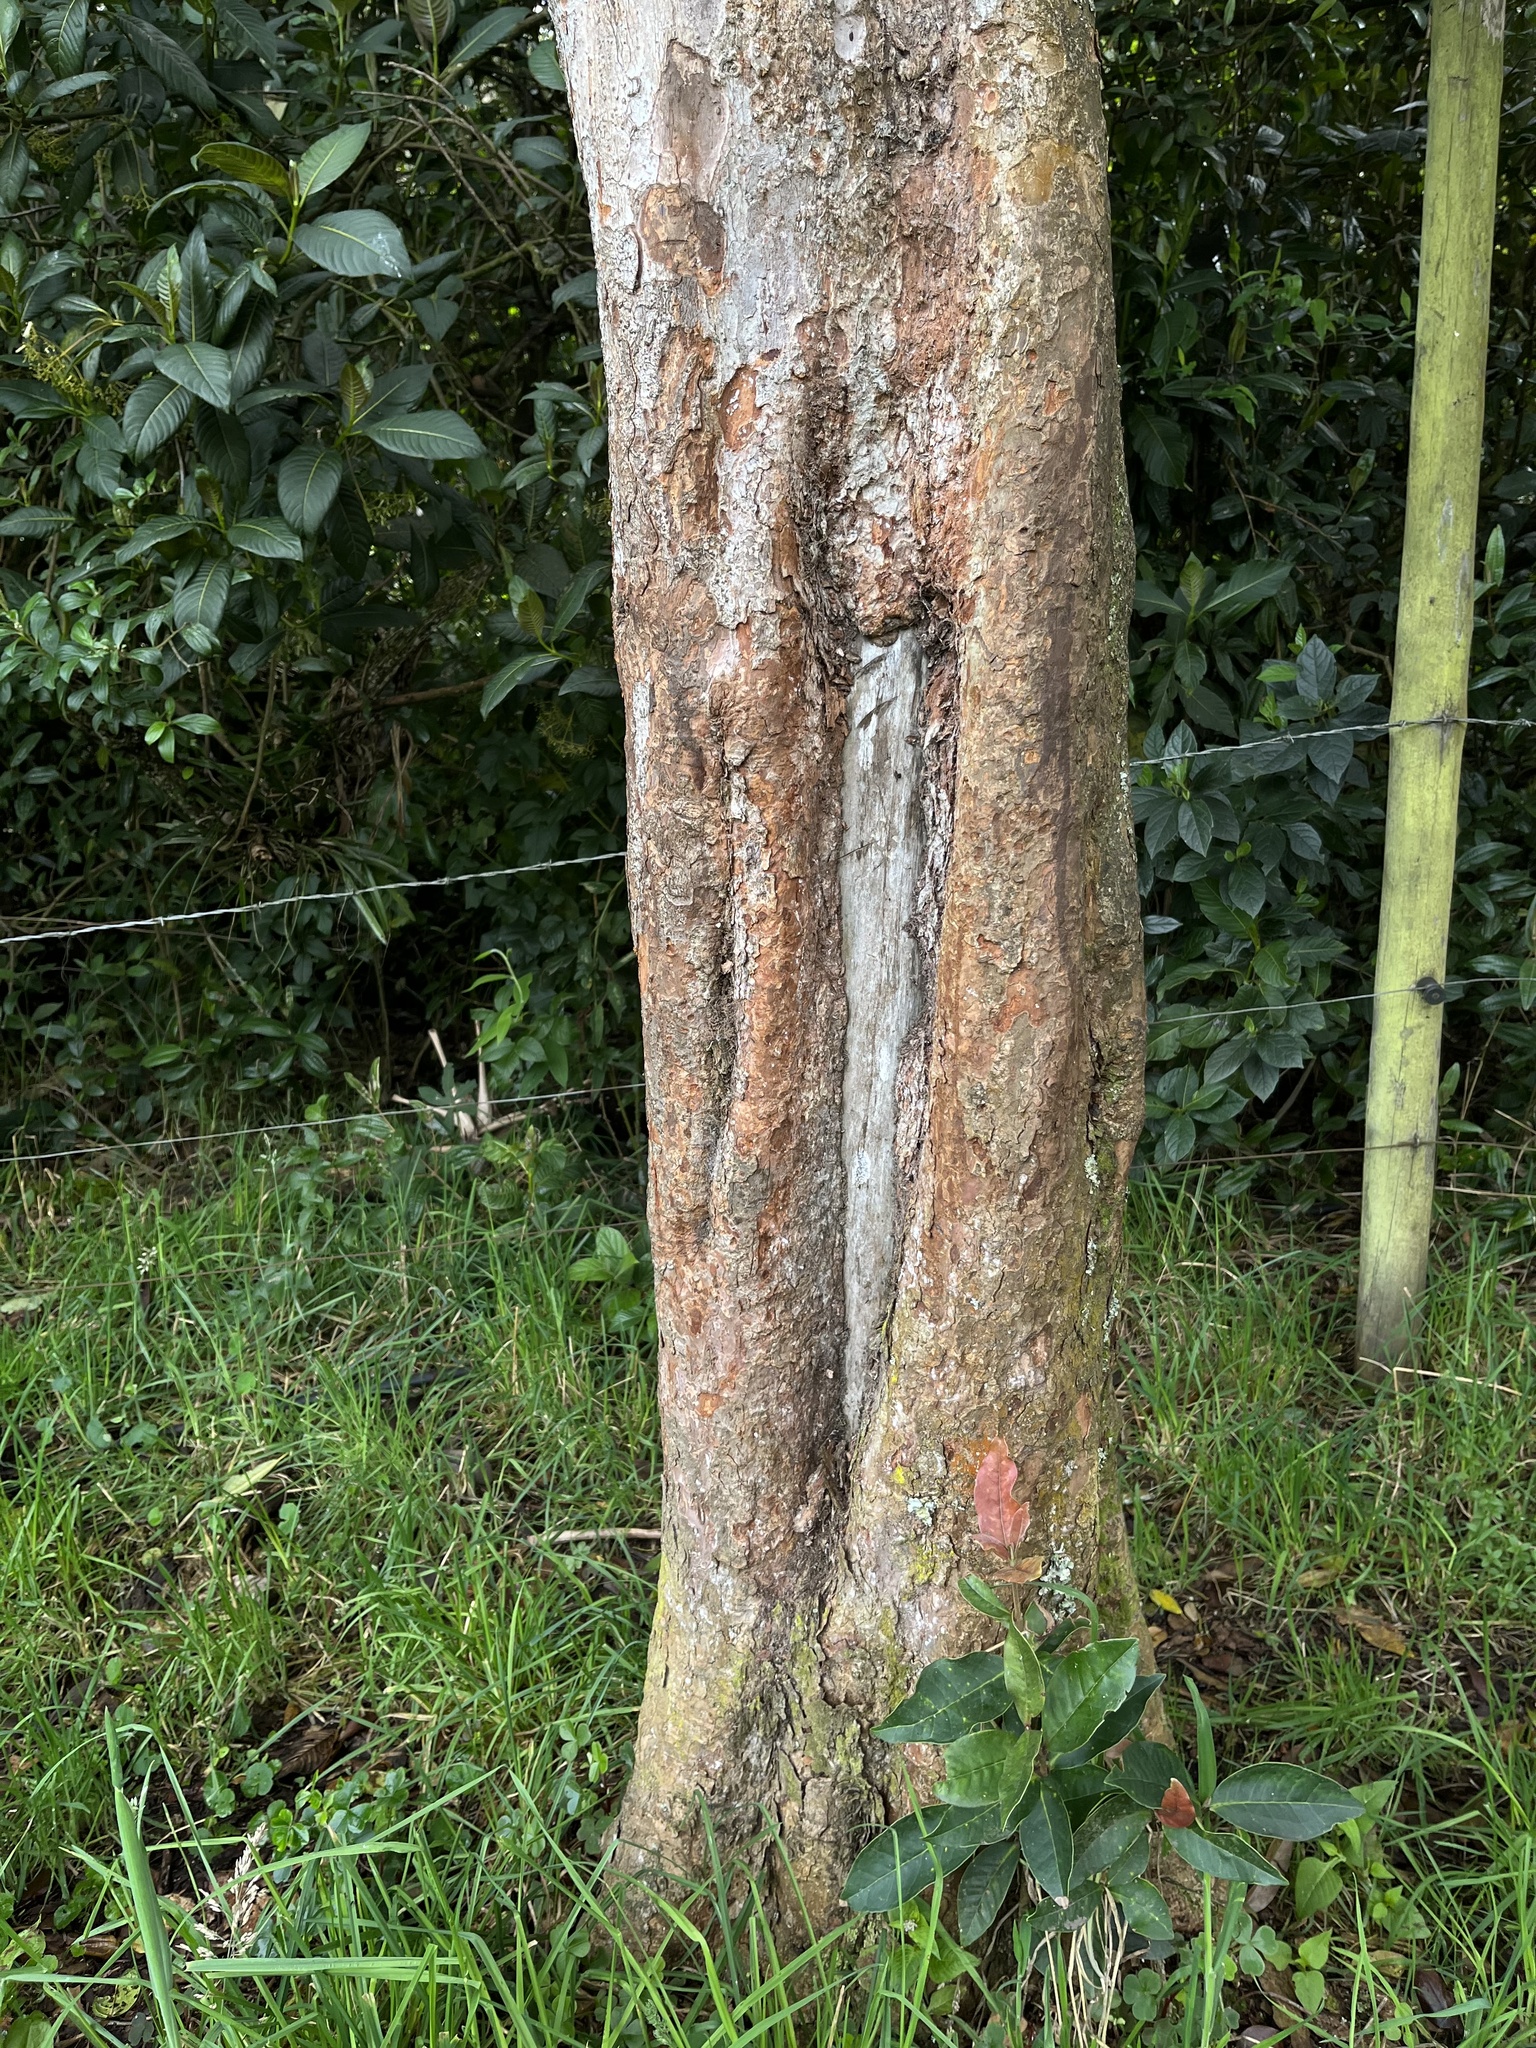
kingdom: Plantae
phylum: Tracheophyta
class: Magnoliopsida
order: Myrtales
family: Myrtaceae
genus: Myrcianthes
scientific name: Myrcianthes rhopaloides
